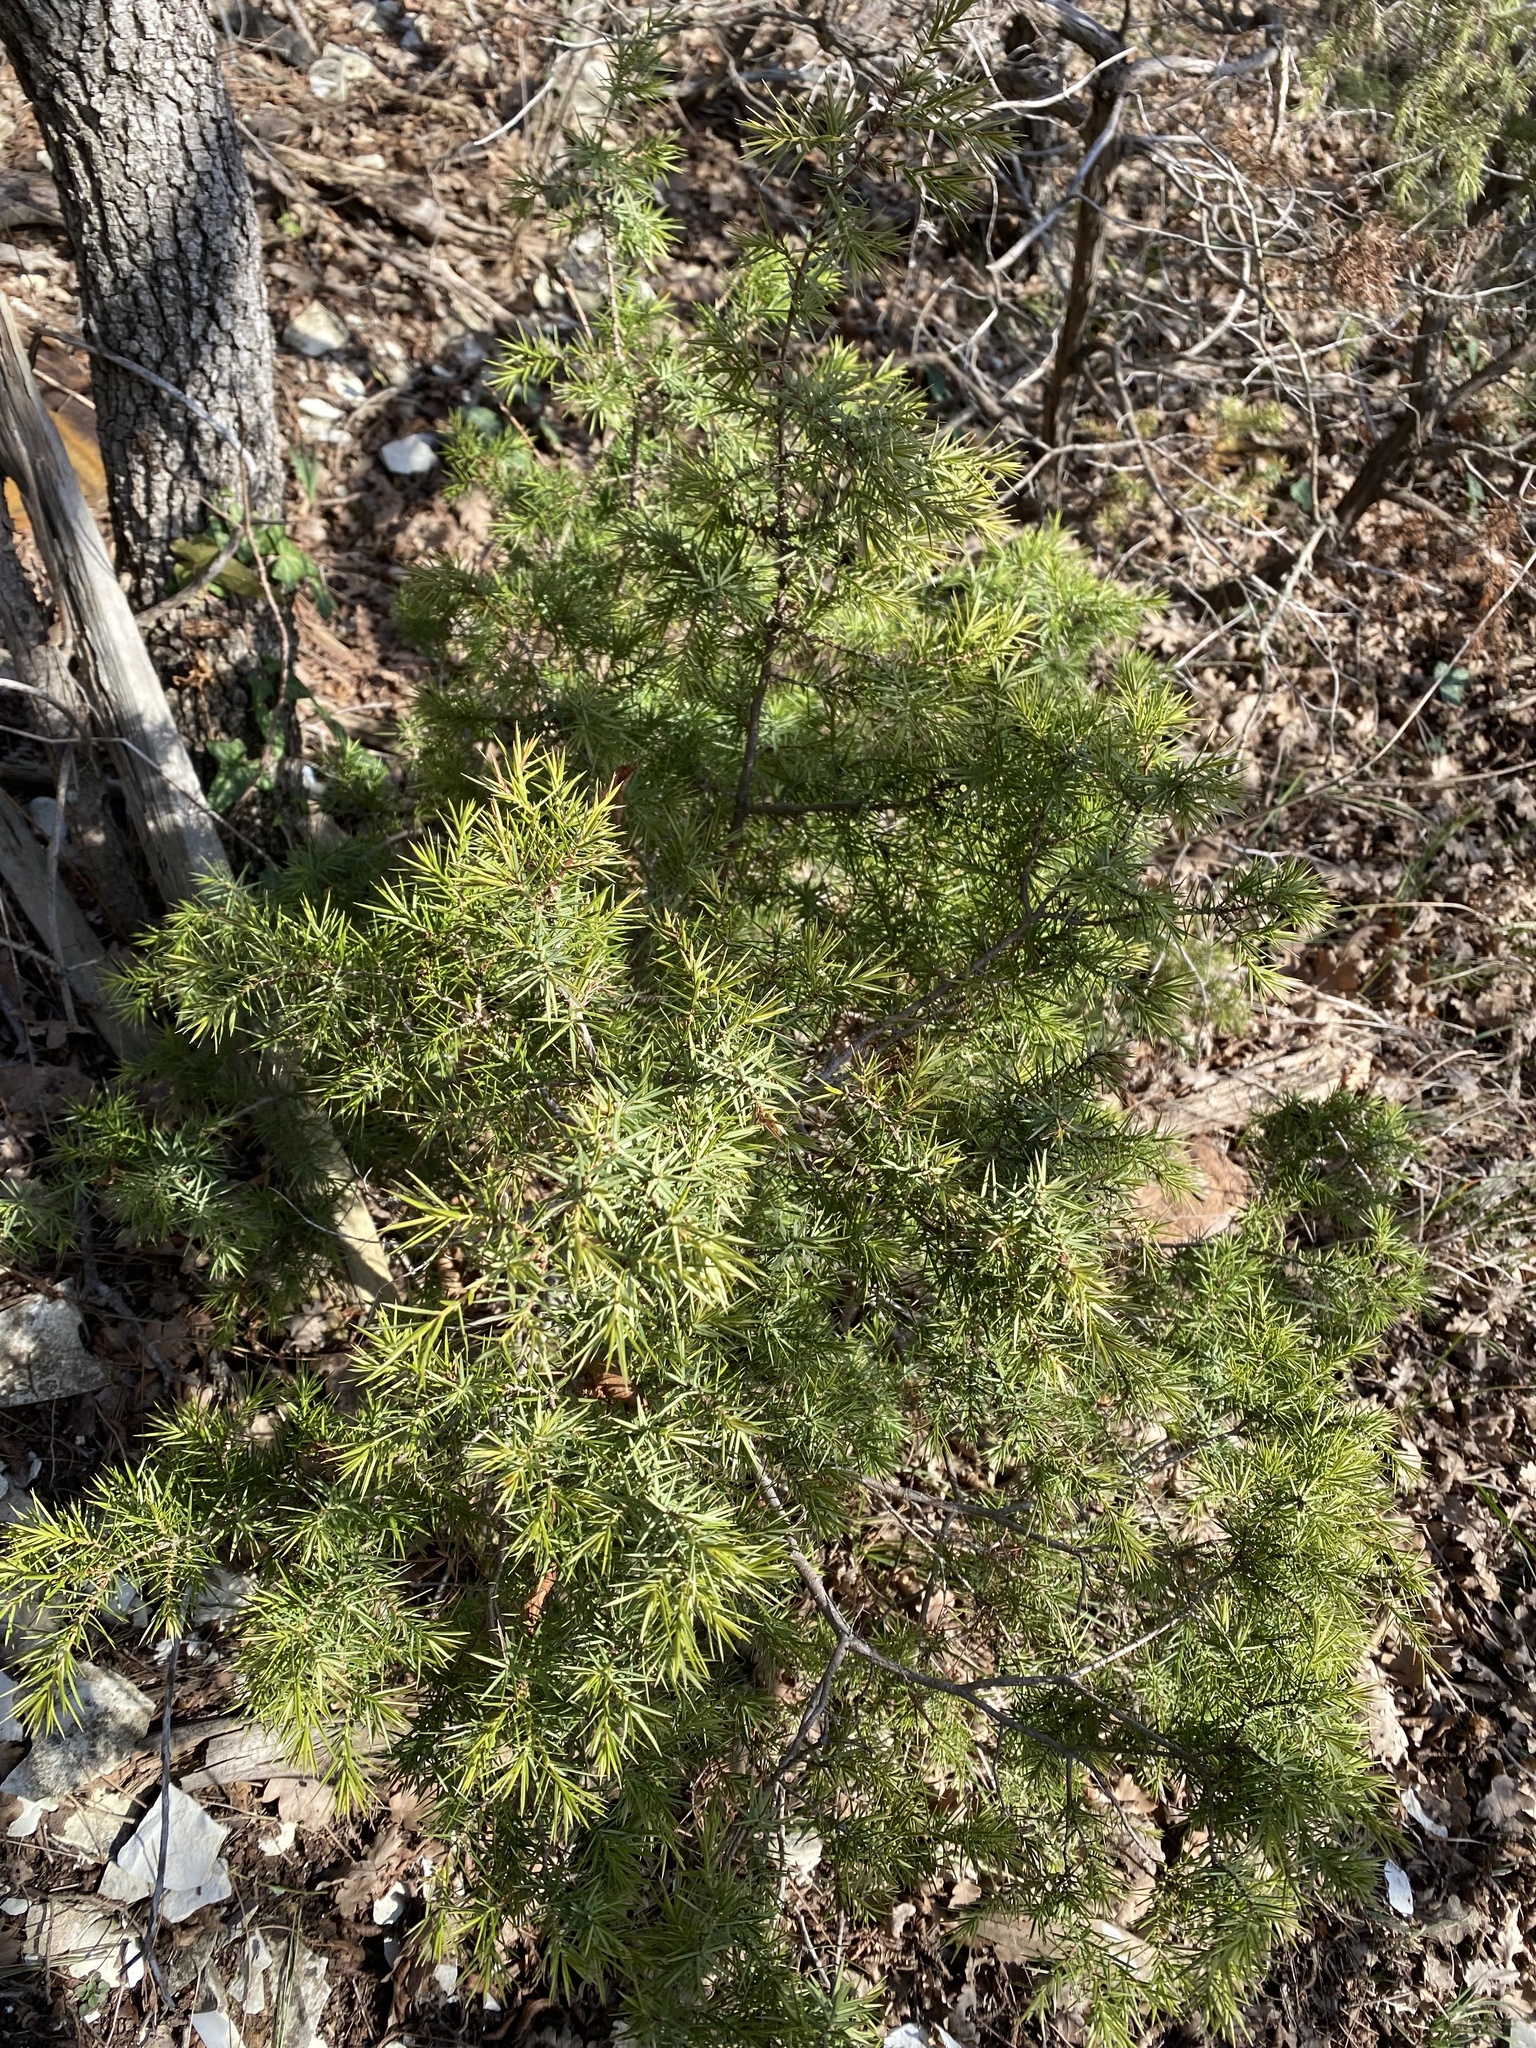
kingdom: Plantae
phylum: Tracheophyta
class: Pinopsida
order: Pinales
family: Cupressaceae
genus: Juniperus
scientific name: Juniperus oxycedrus
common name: Prickly juniper
